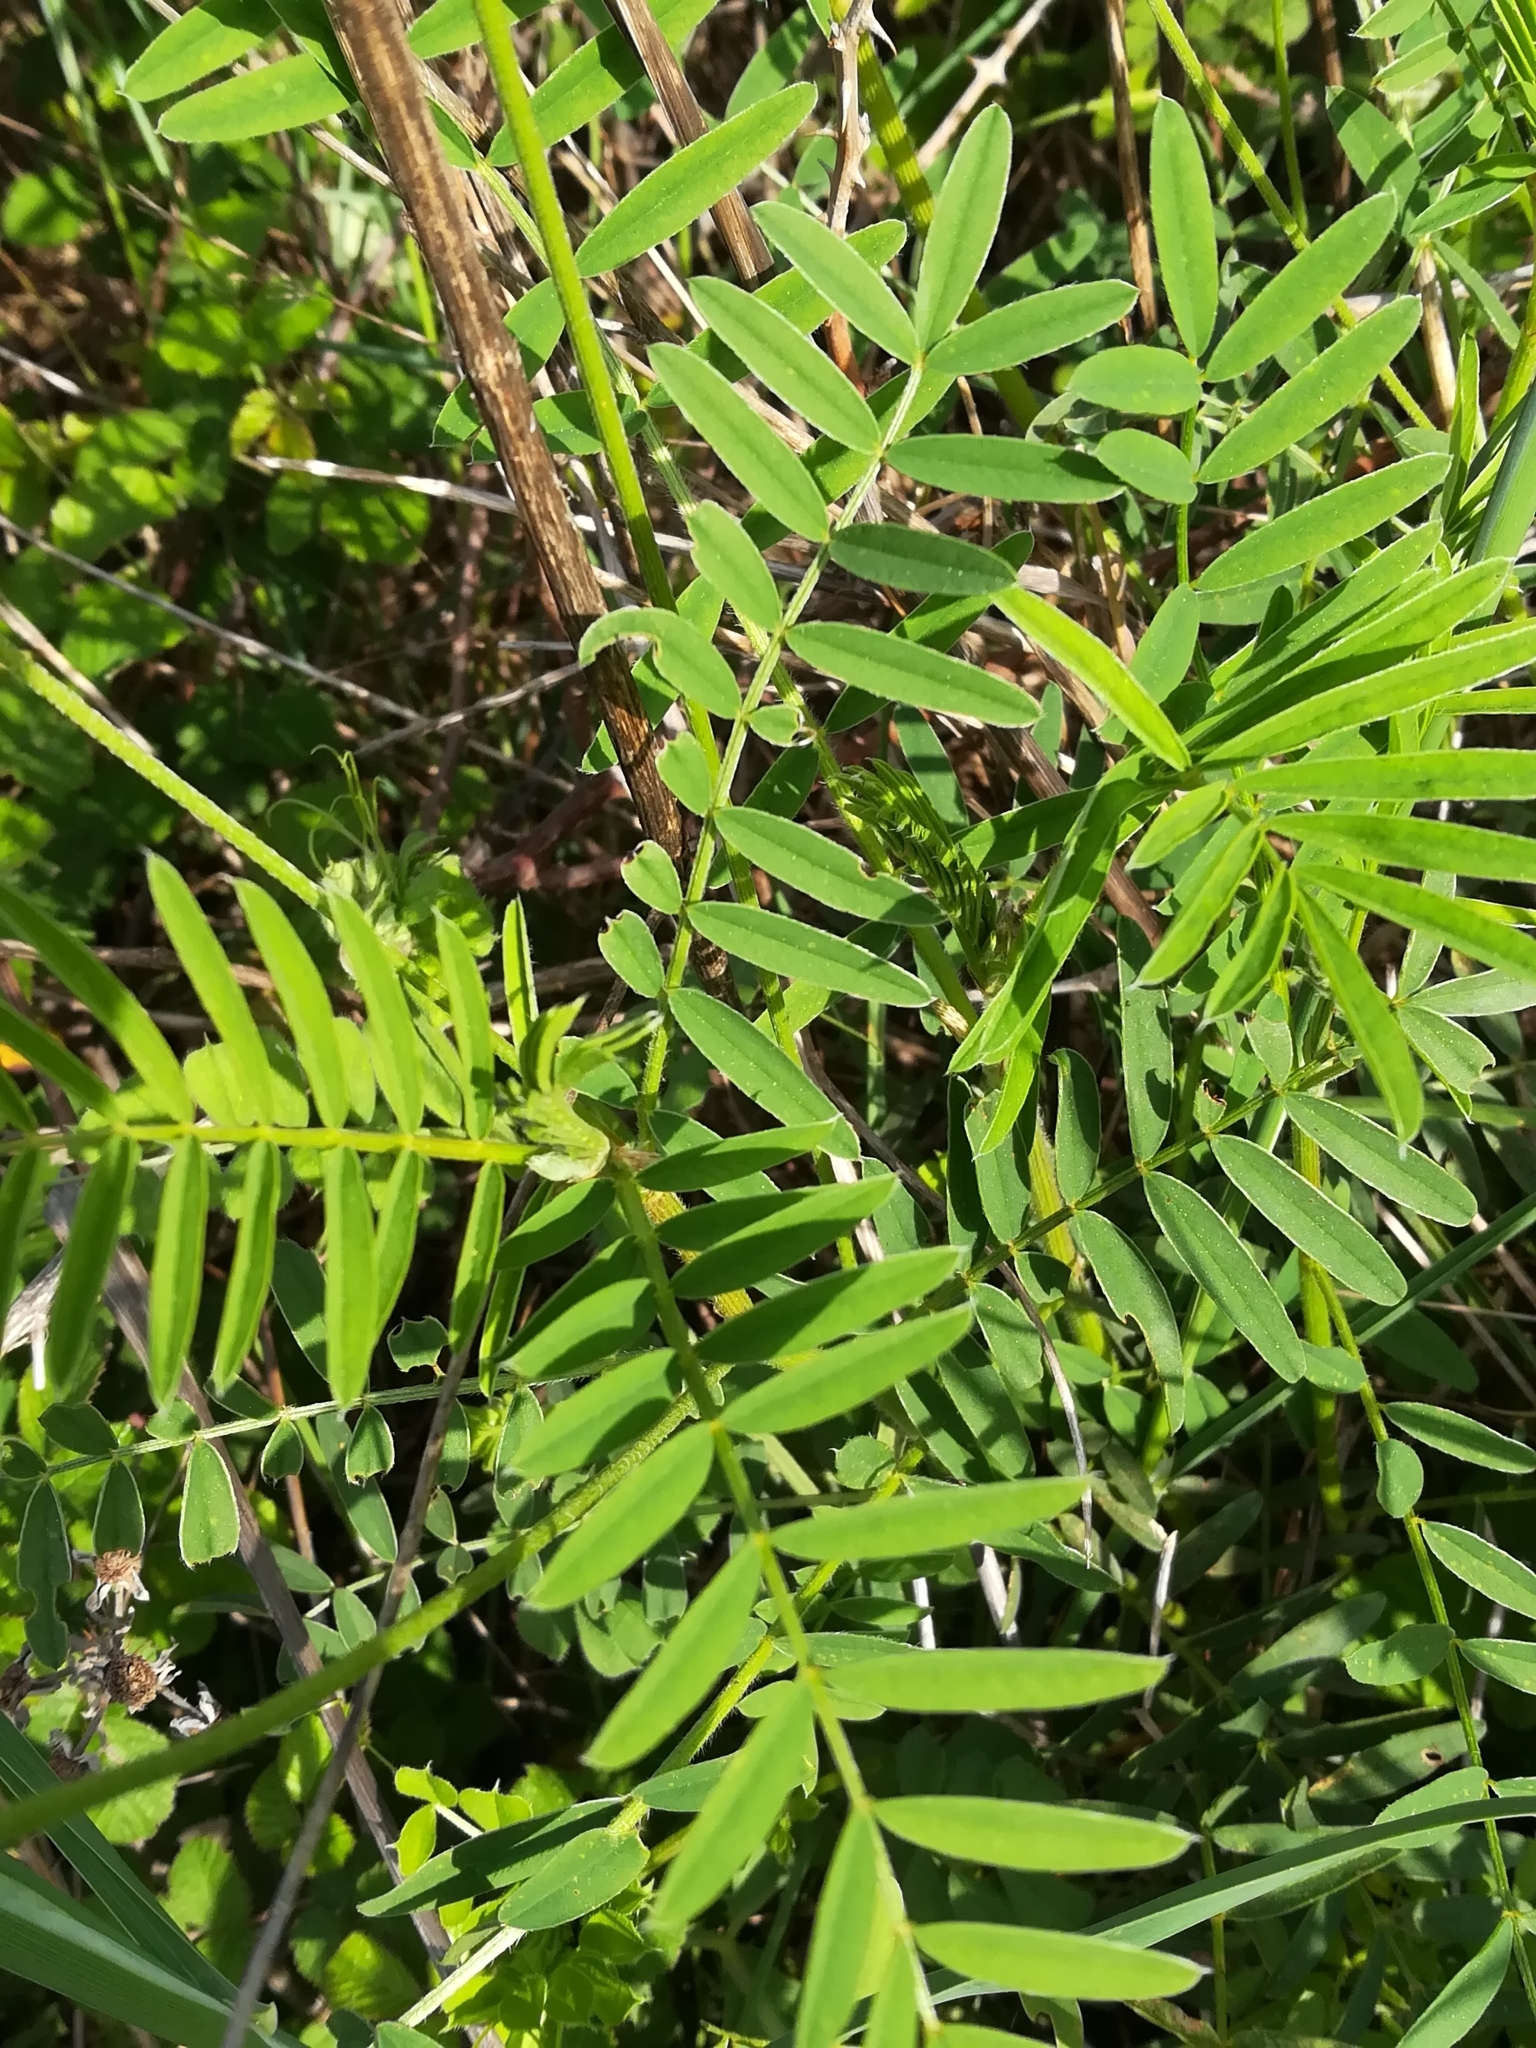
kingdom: Plantae
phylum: Tracheophyta
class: Magnoliopsida
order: Fabales
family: Fabaceae
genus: Onobrychis
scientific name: Onobrychis viciifolia
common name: Sainfoin
